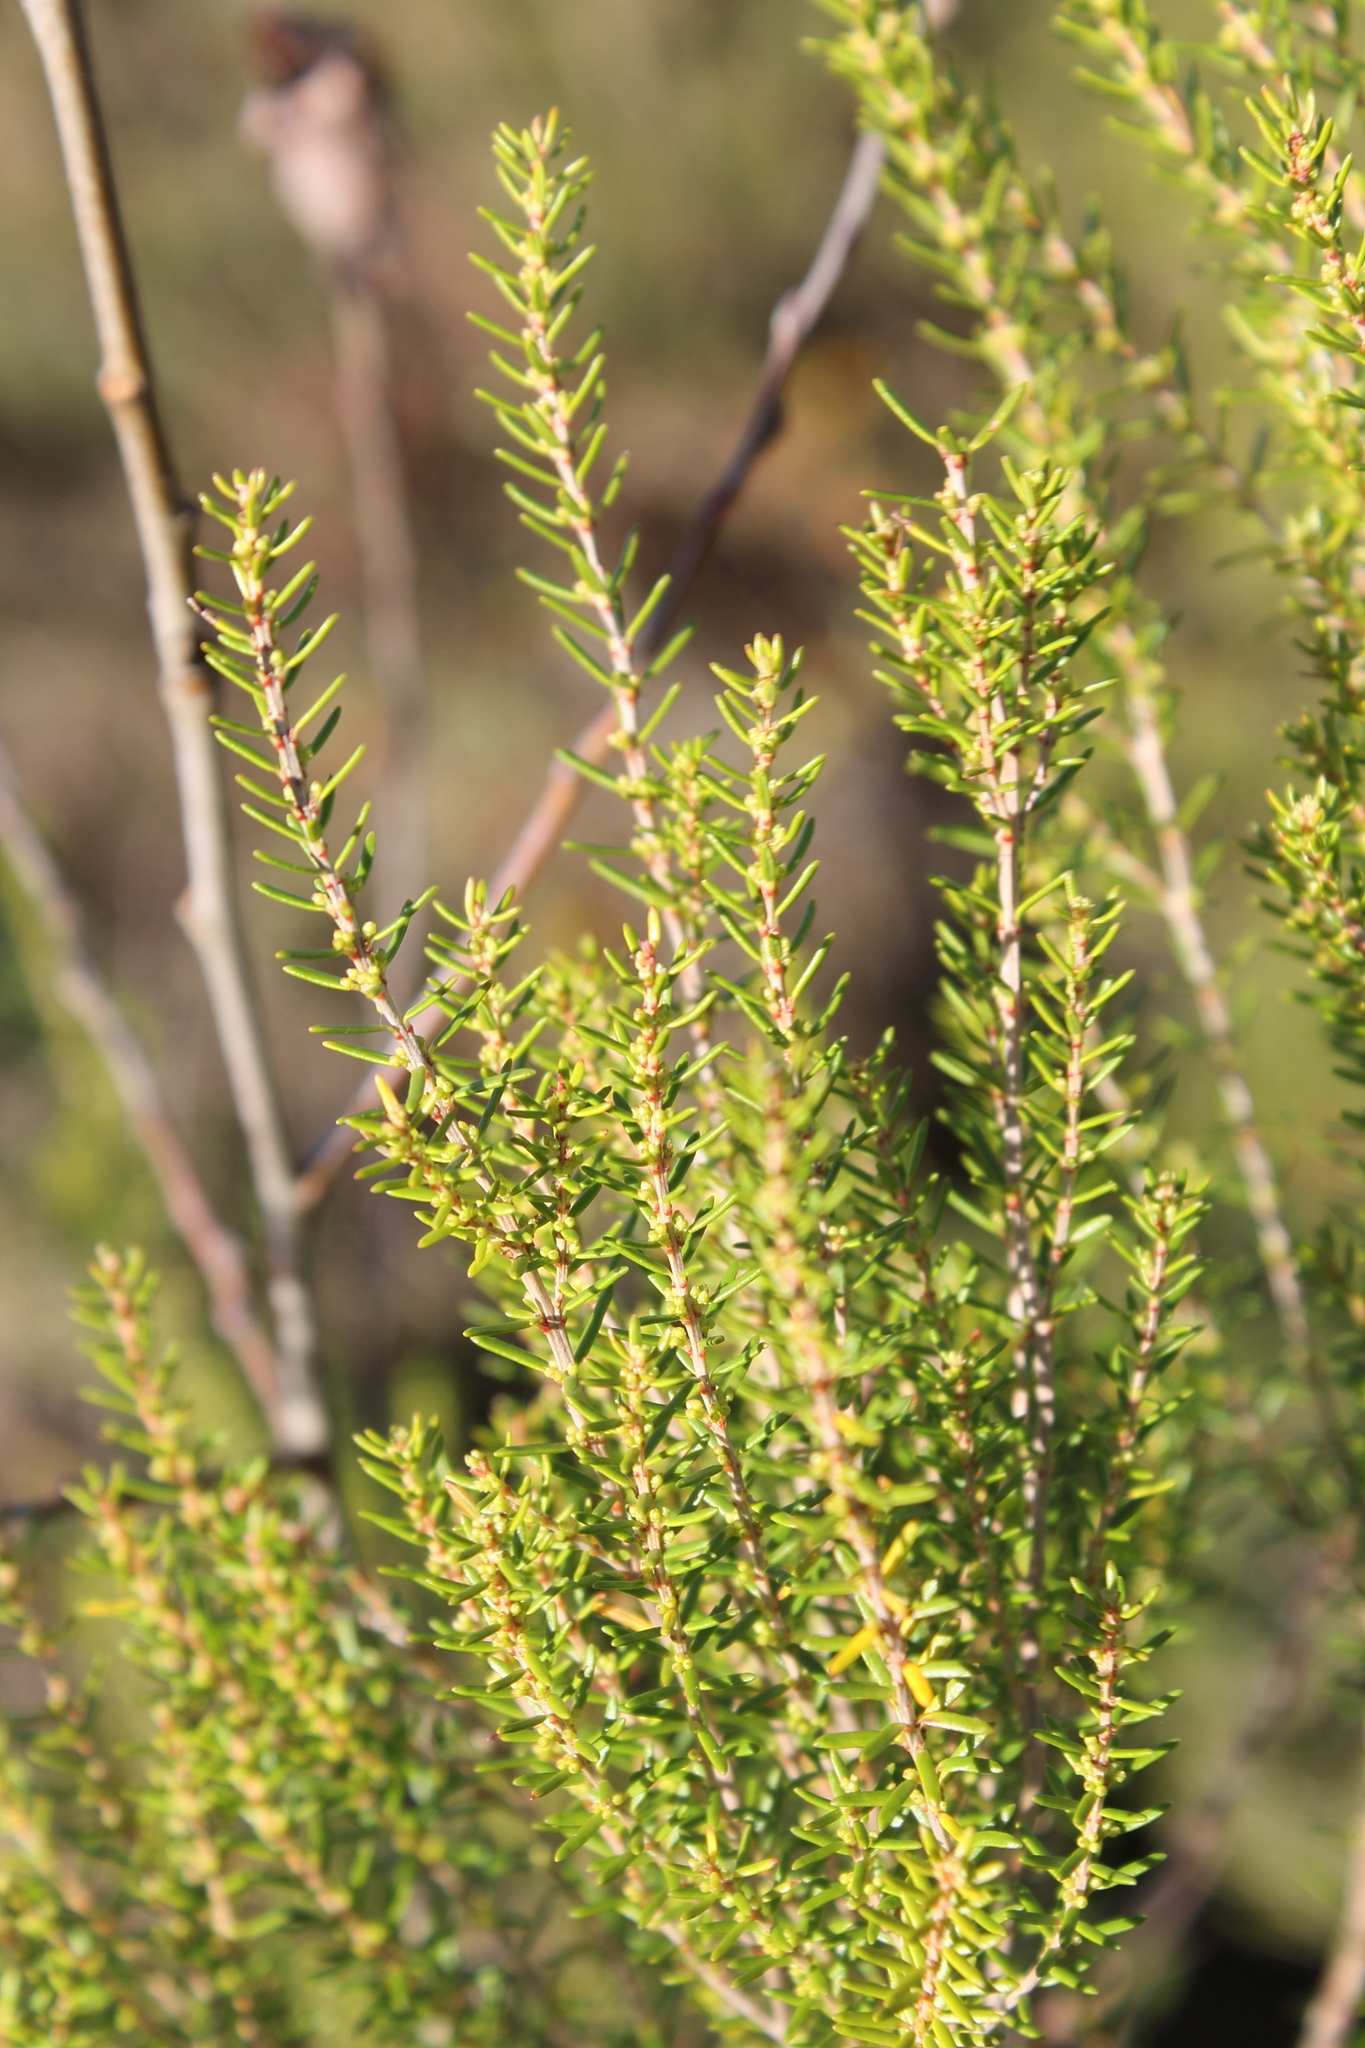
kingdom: Plantae
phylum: Tracheophyta
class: Magnoliopsida
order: Ericales
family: Ericaceae
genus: Erica
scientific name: Erica scoparia
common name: Green heather
